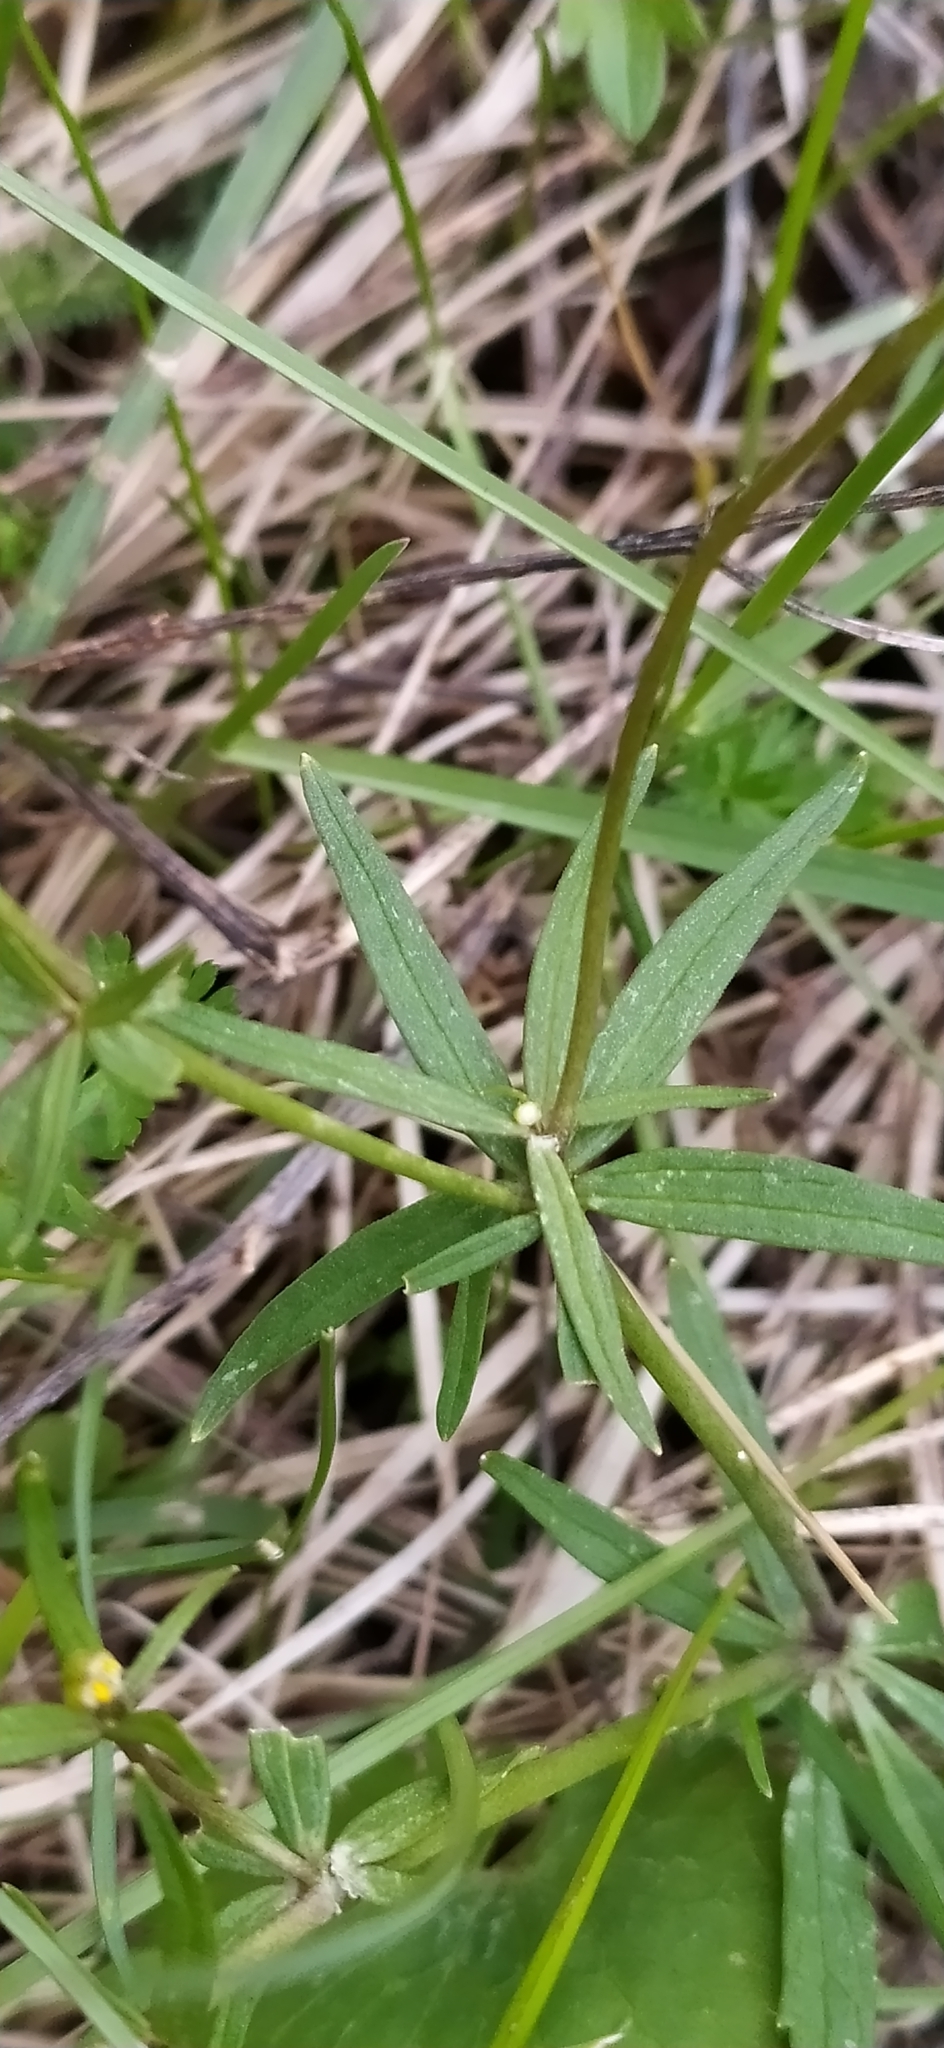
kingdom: Plantae
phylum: Tracheophyta
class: Magnoliopsida
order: Ranunculales
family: Ranunculaceae
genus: Ranunculus
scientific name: Ranunculus monophyllus
